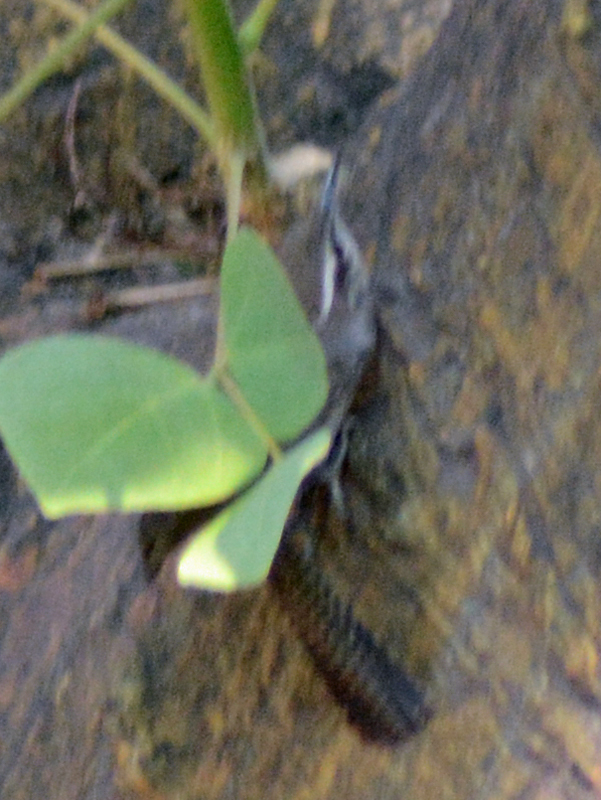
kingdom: Animalia
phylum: Chordata
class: Aves
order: Passeriformes
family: Troglodytidae
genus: Thryomanes
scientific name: Thryomanes bewickii
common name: Bewick's wren
